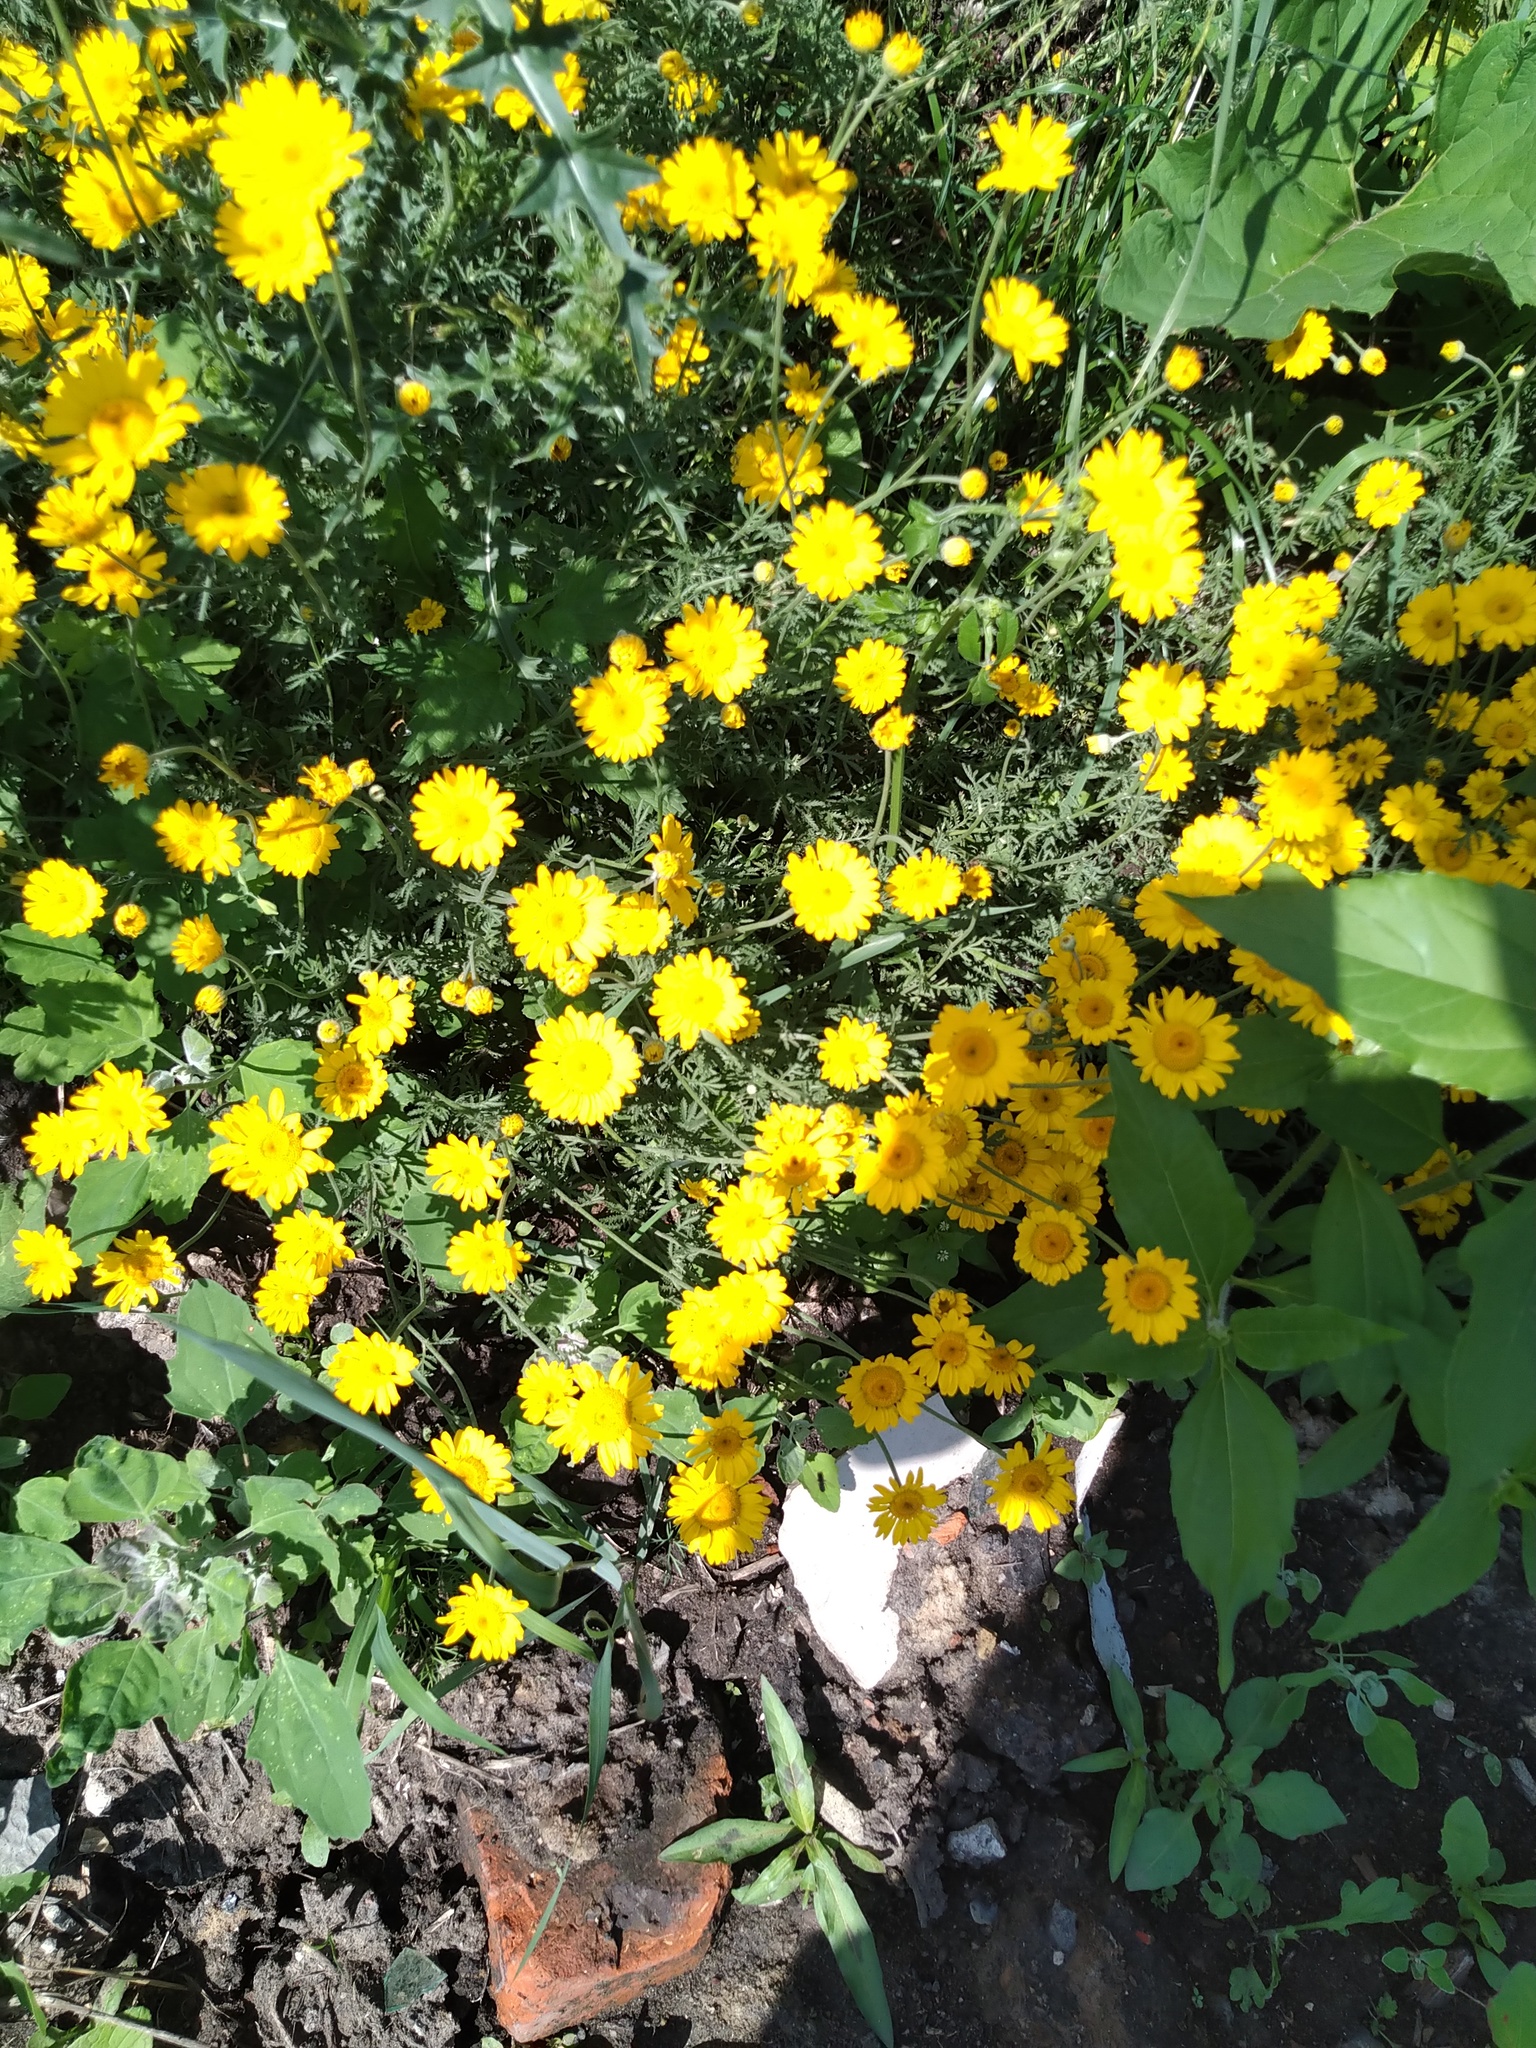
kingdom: Plantae
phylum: Tracheophyta
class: Magnoliopsida
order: Asterales
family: Asteraceae
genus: Cota
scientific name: Cota tinctoria
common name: Golden chamomile
